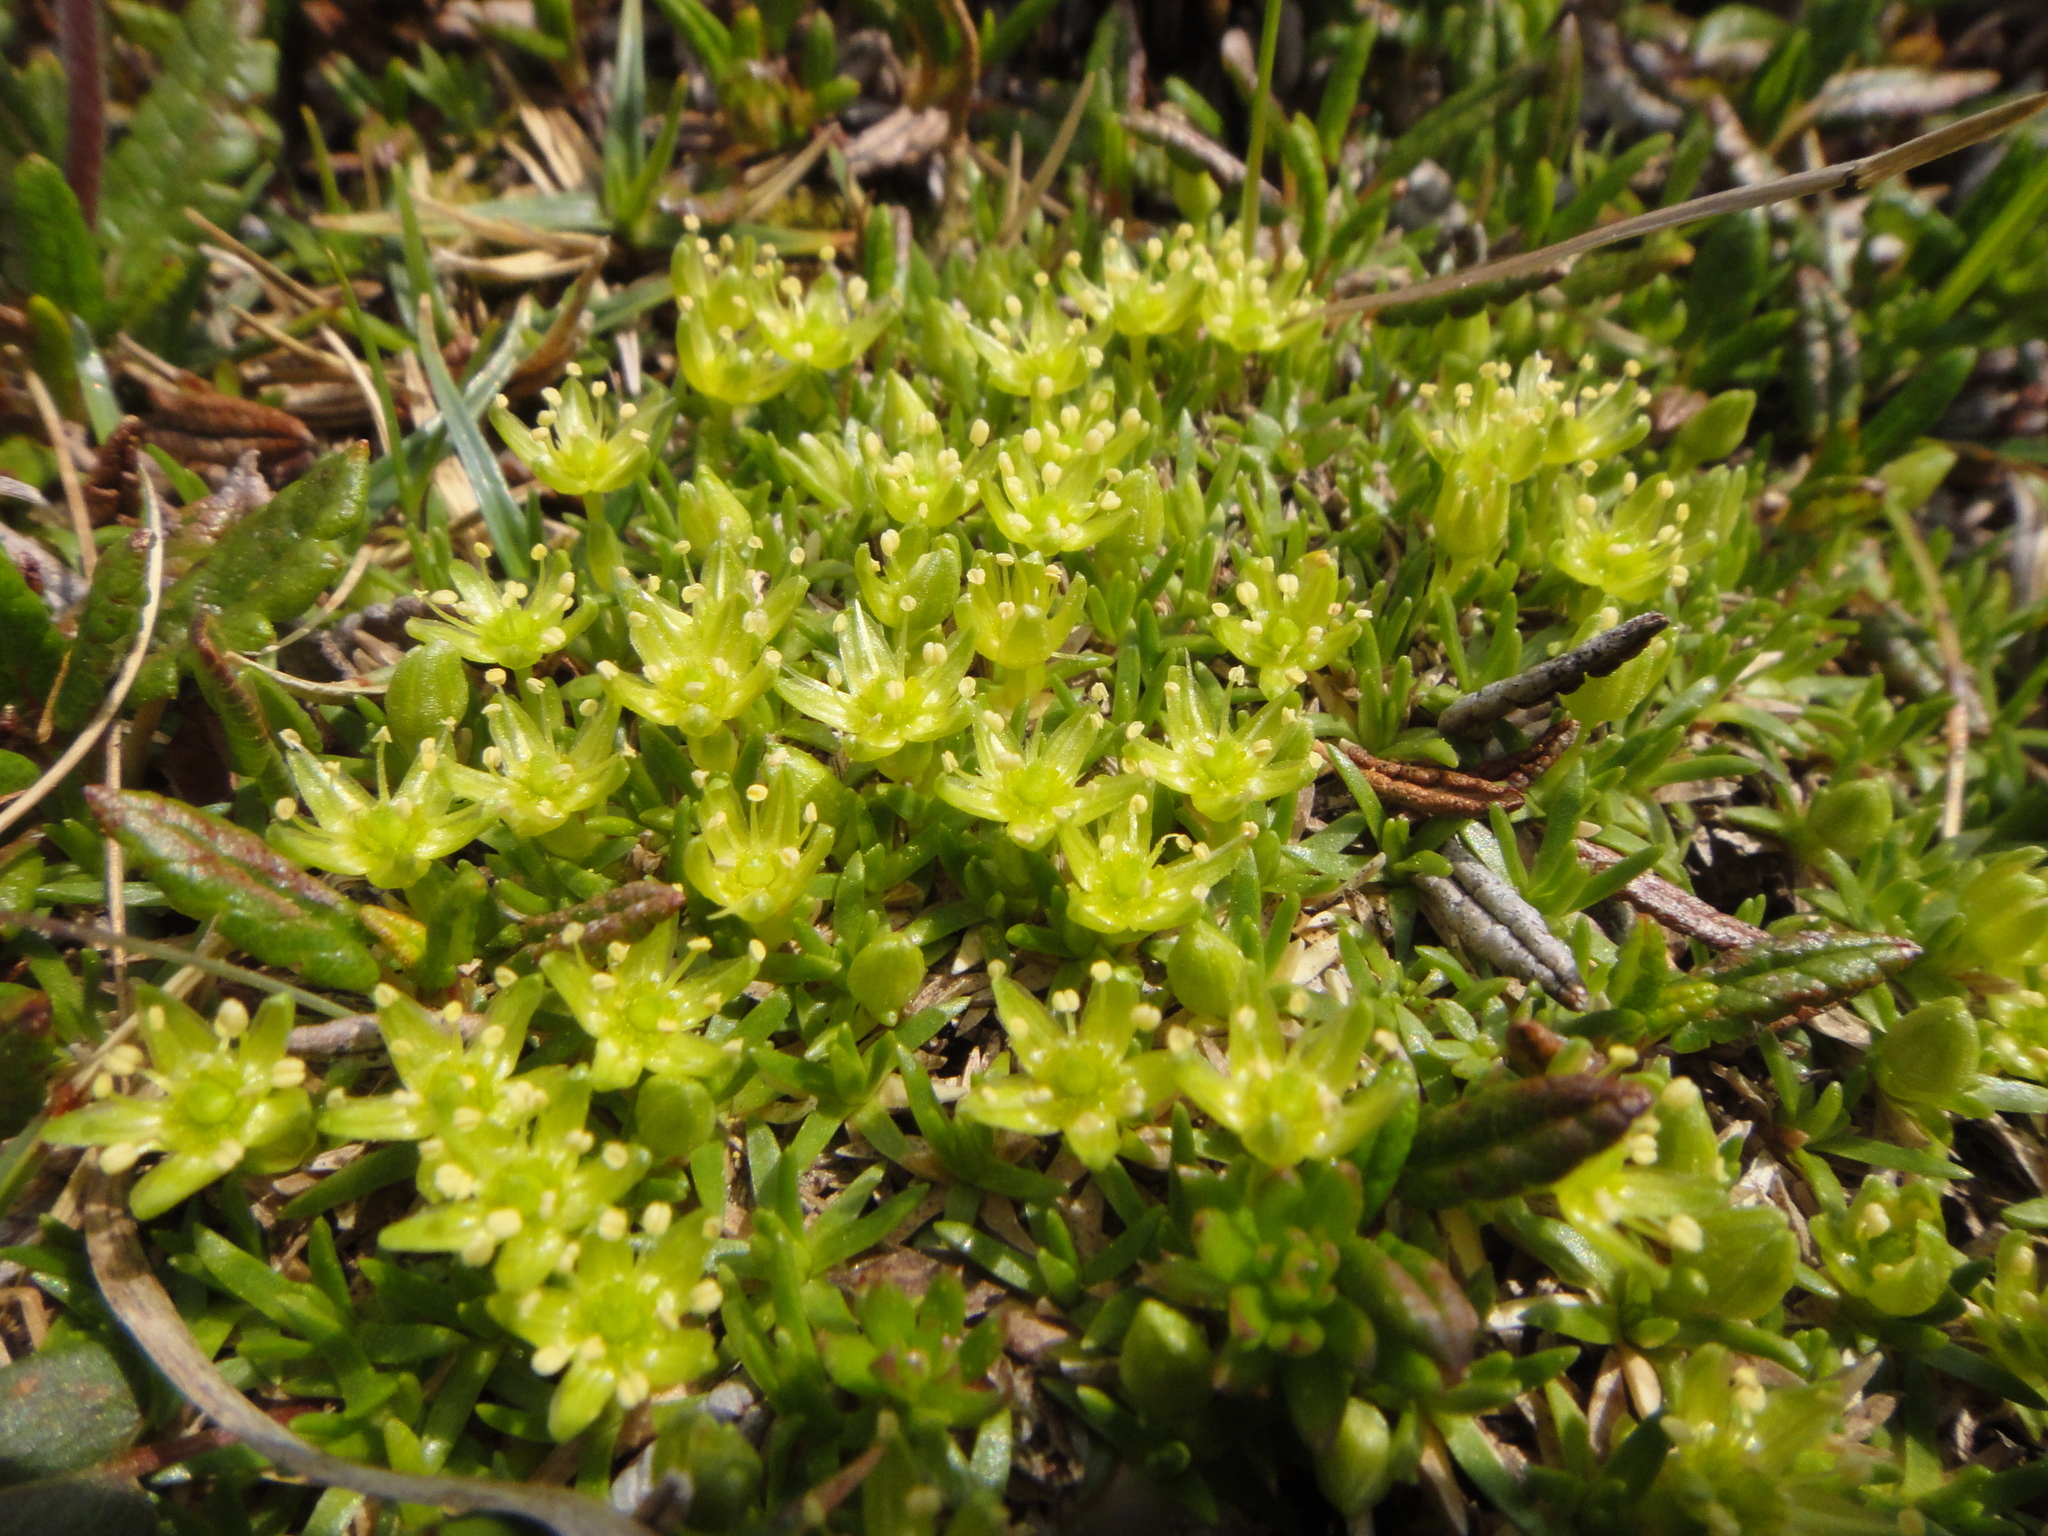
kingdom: Plantae
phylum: Tracheophyta
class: Magnoliopsida
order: Caryophyllales
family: Caryophyllaceae
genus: Cherleria
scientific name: Cherleria sedoides
